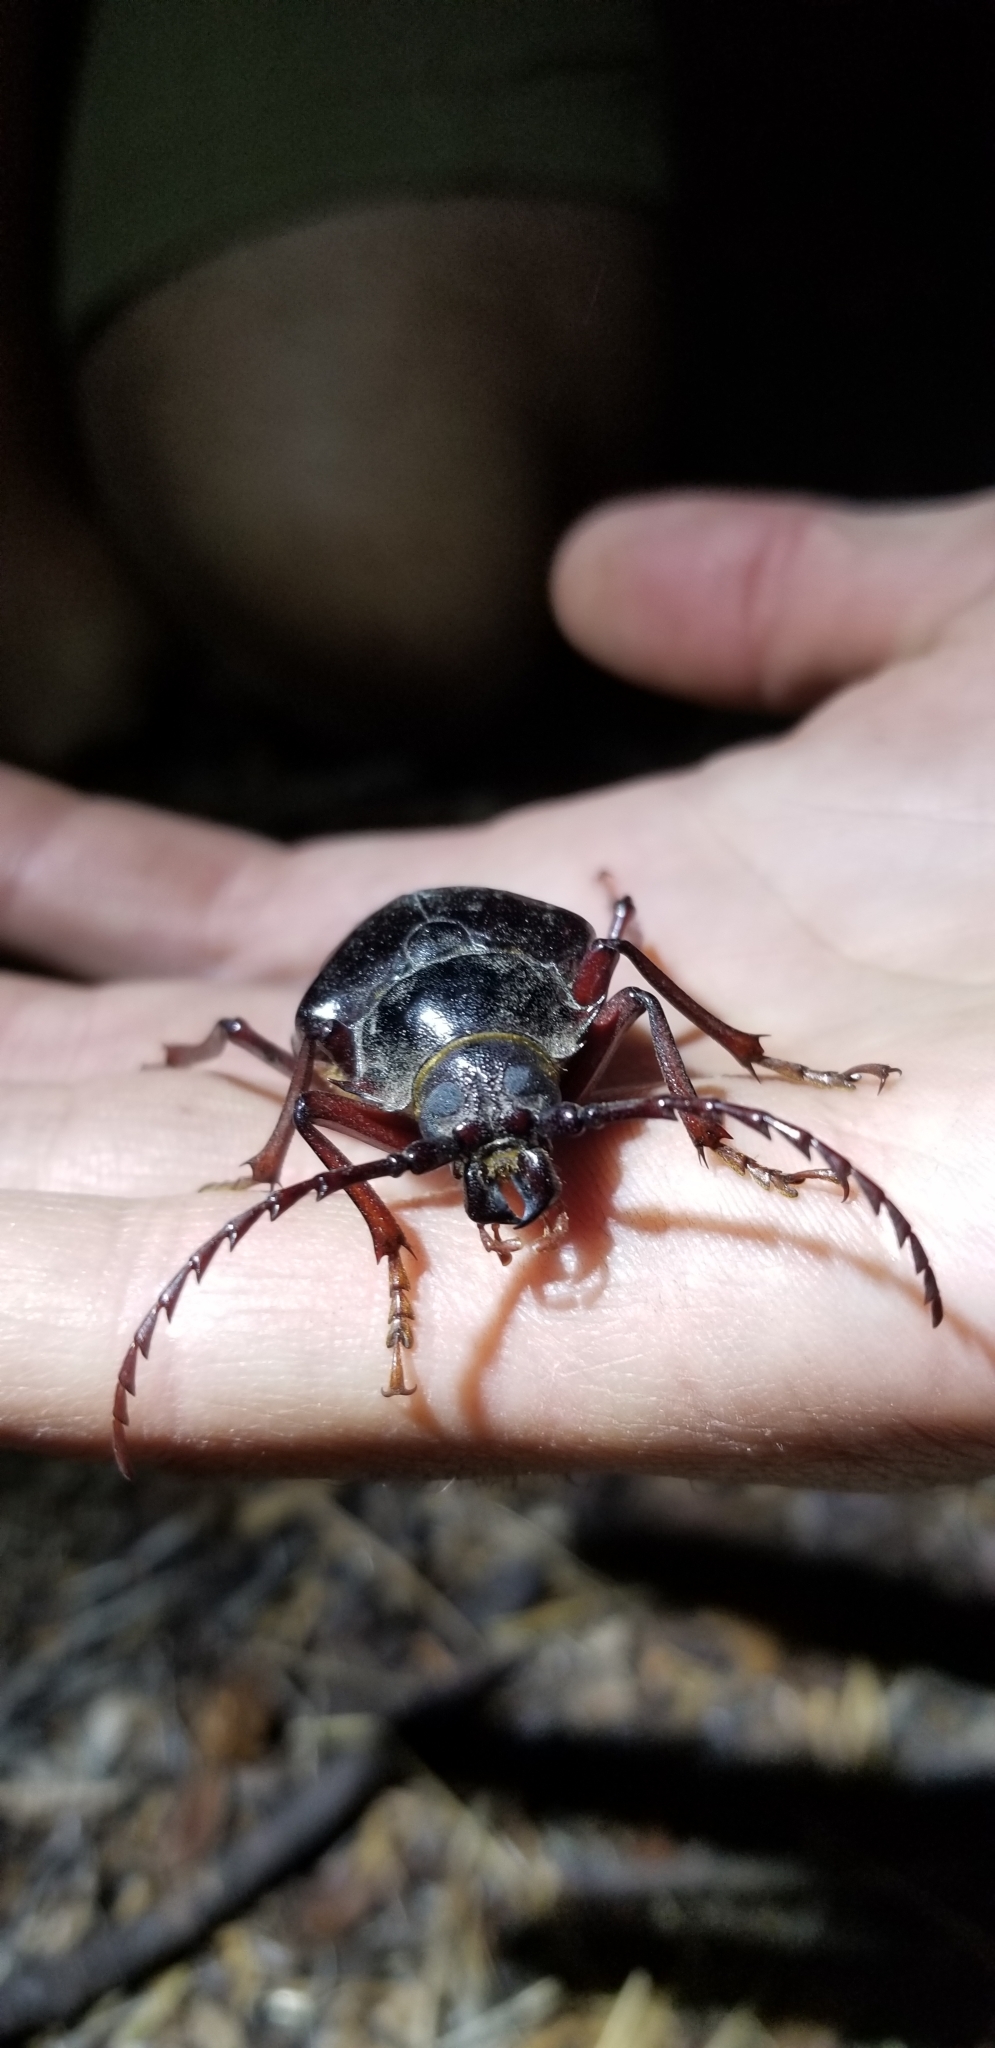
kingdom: Animalia
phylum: Arthropoda
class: Insecta
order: Coleoptera
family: Cerambycidae
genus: Prionus
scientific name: Prionus californicus
